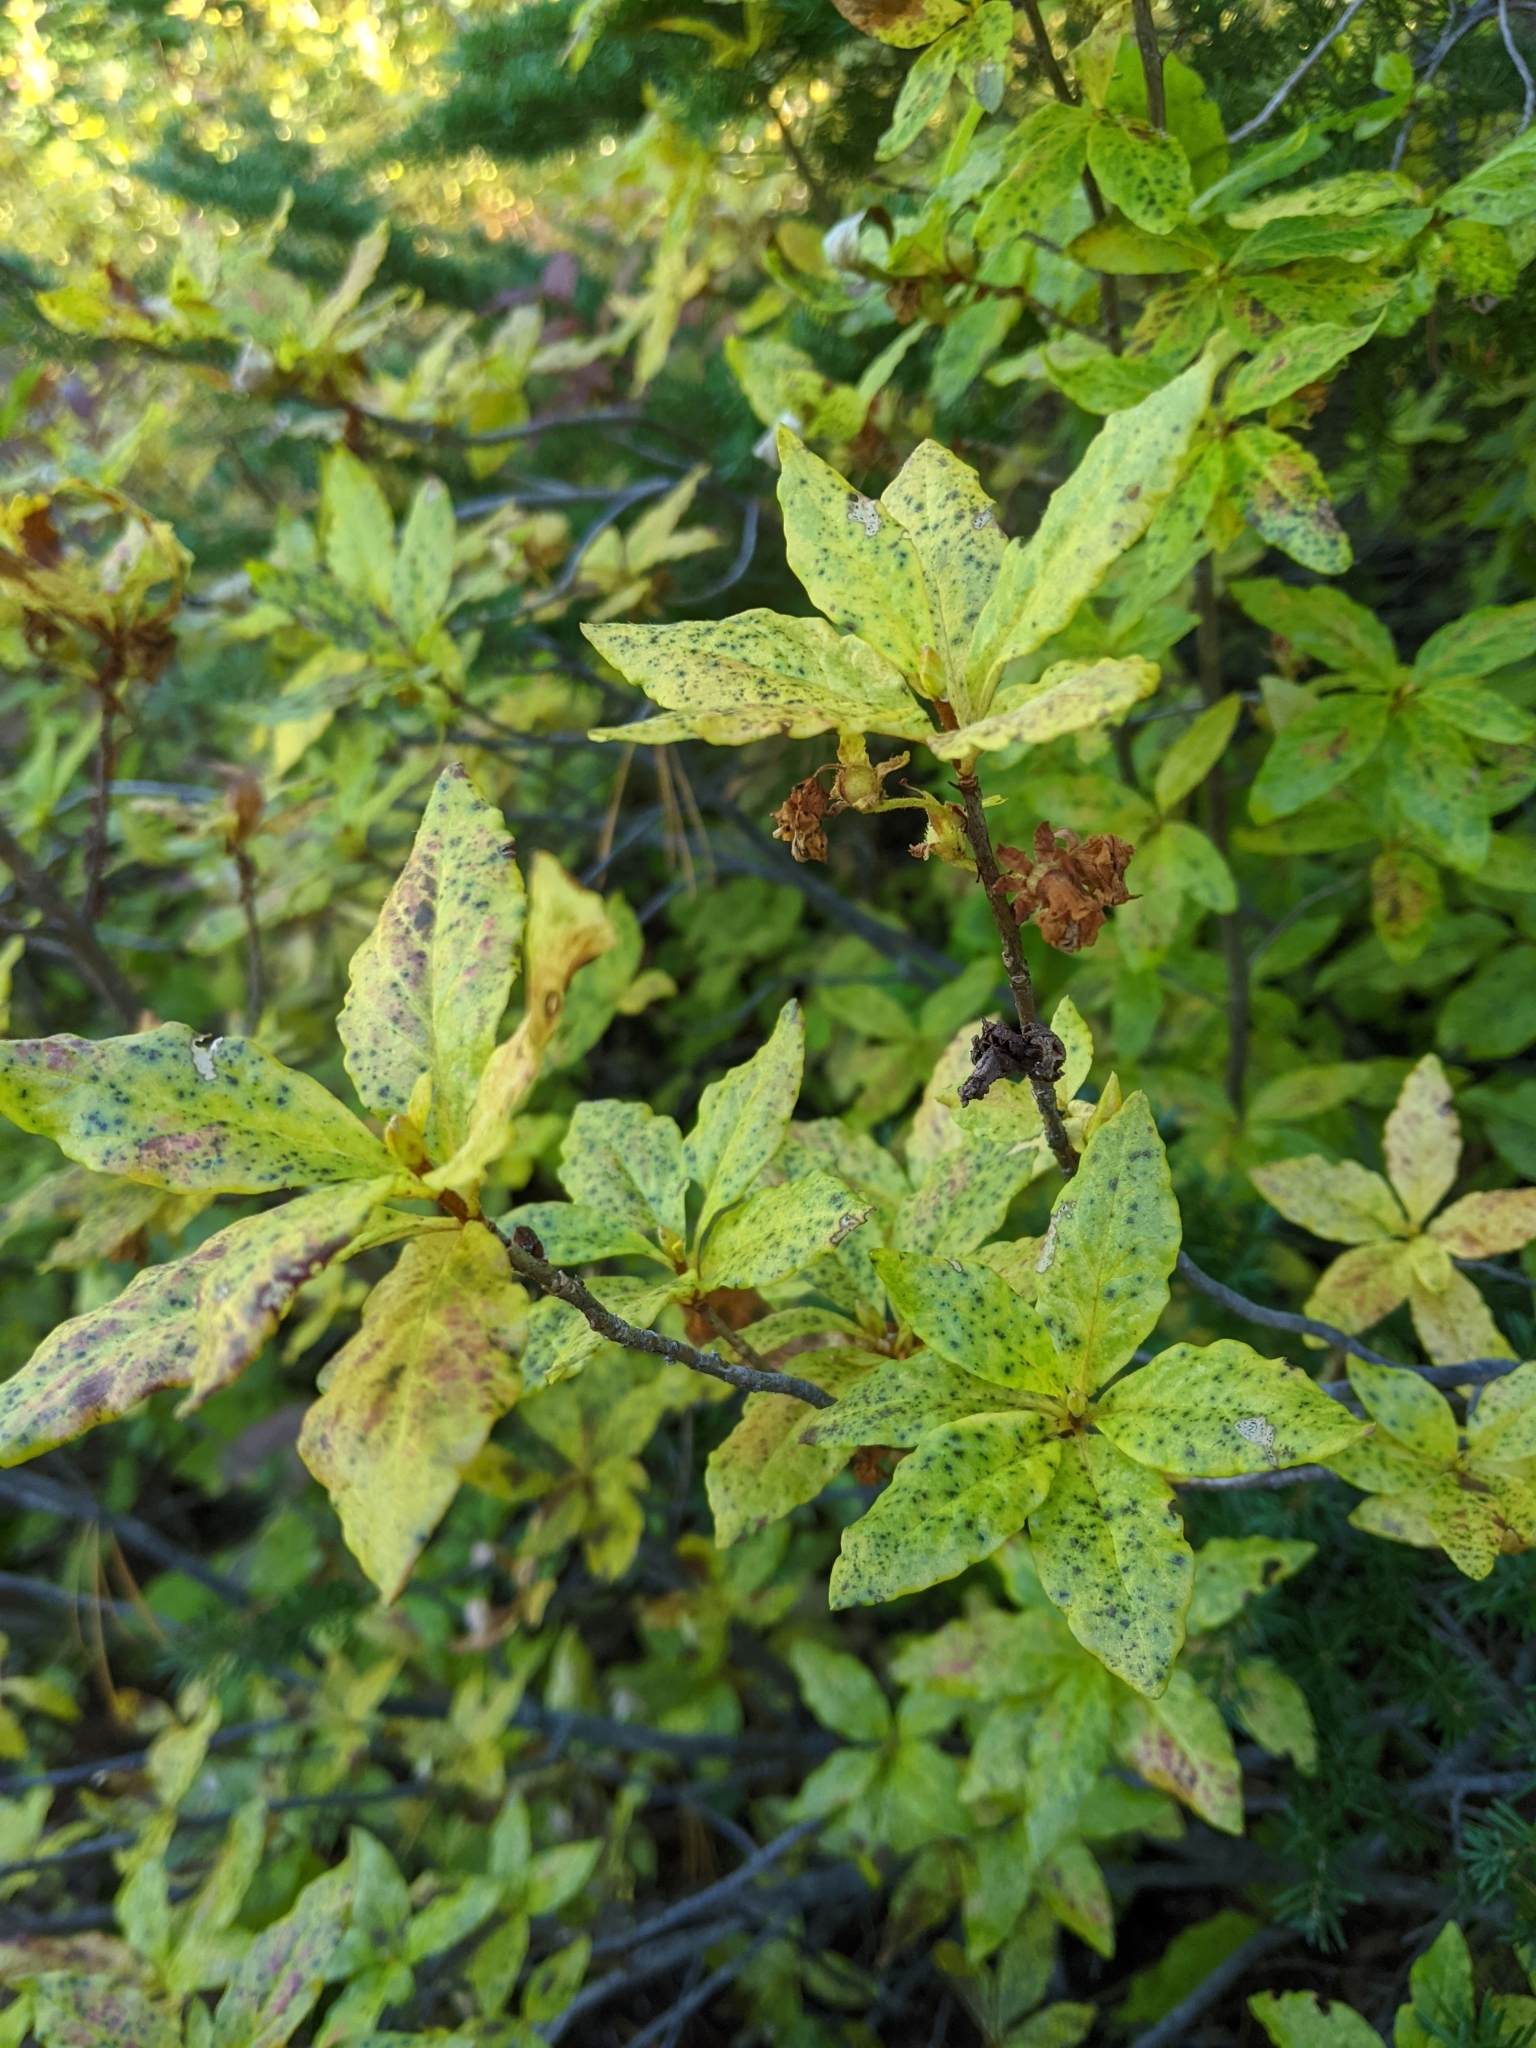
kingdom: Plantae
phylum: Tracheophyta
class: Magnoliopsida
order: Ericales
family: Ericaceae
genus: Rhododendron
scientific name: Rhododendron albiflorum
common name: White rhododendron
